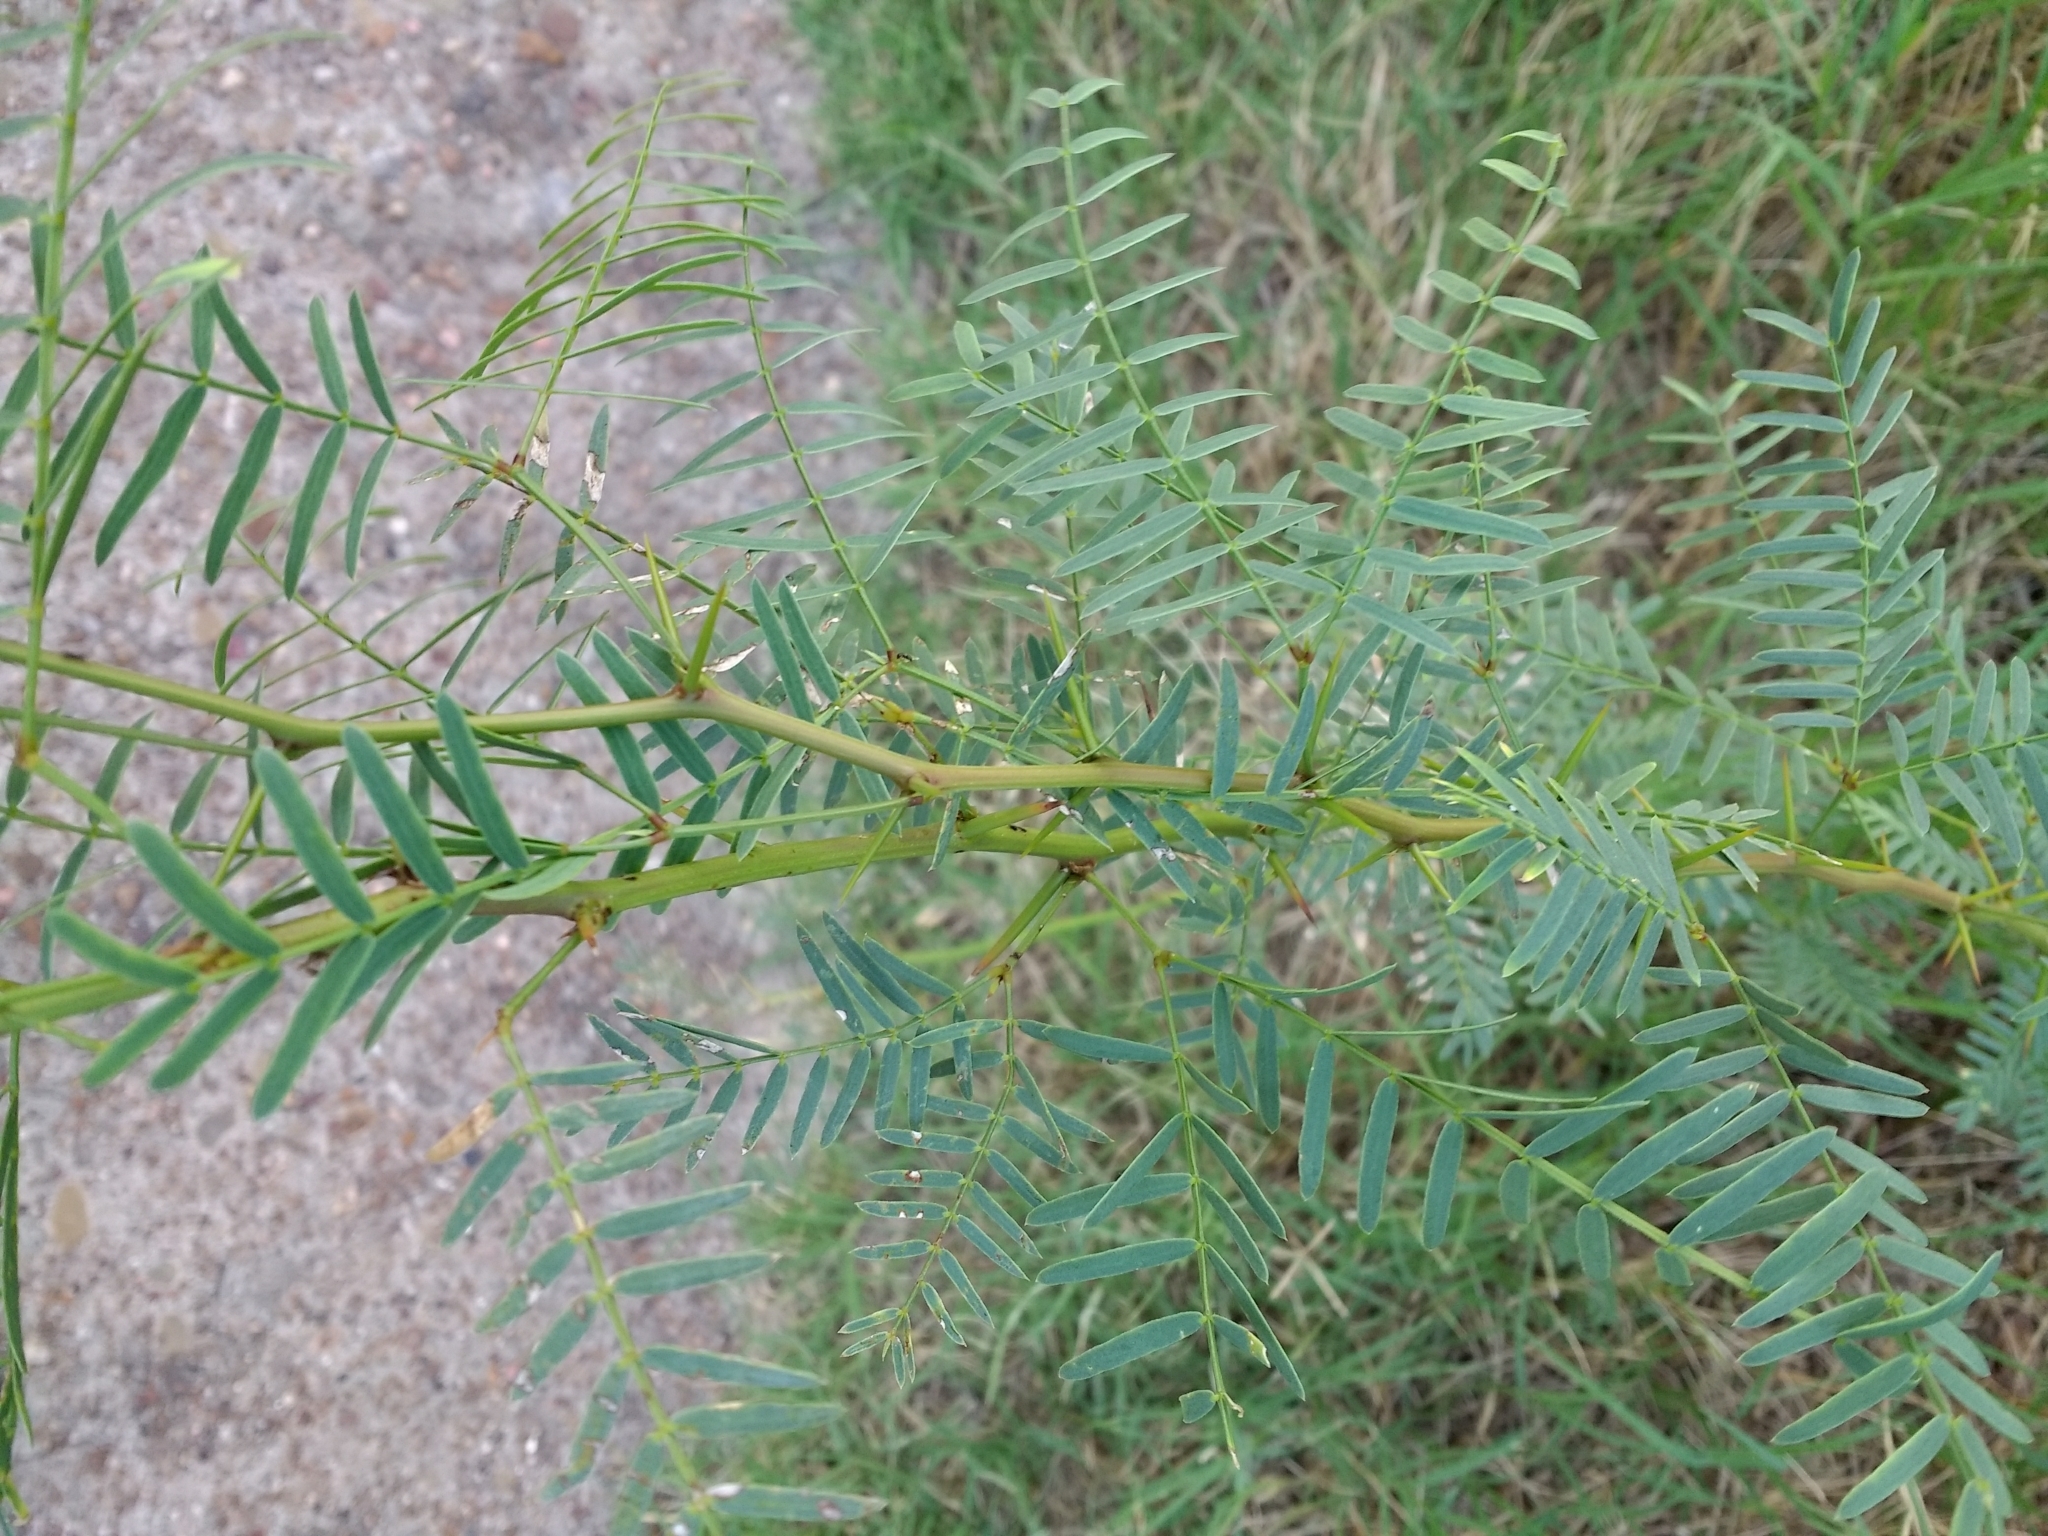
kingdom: Plantae
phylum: Tracheophyta
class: Magnoliopsida
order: Fabales
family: Fabaceae
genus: Prosopis
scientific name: Prosopis glandulosa
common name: Honey mesquite
